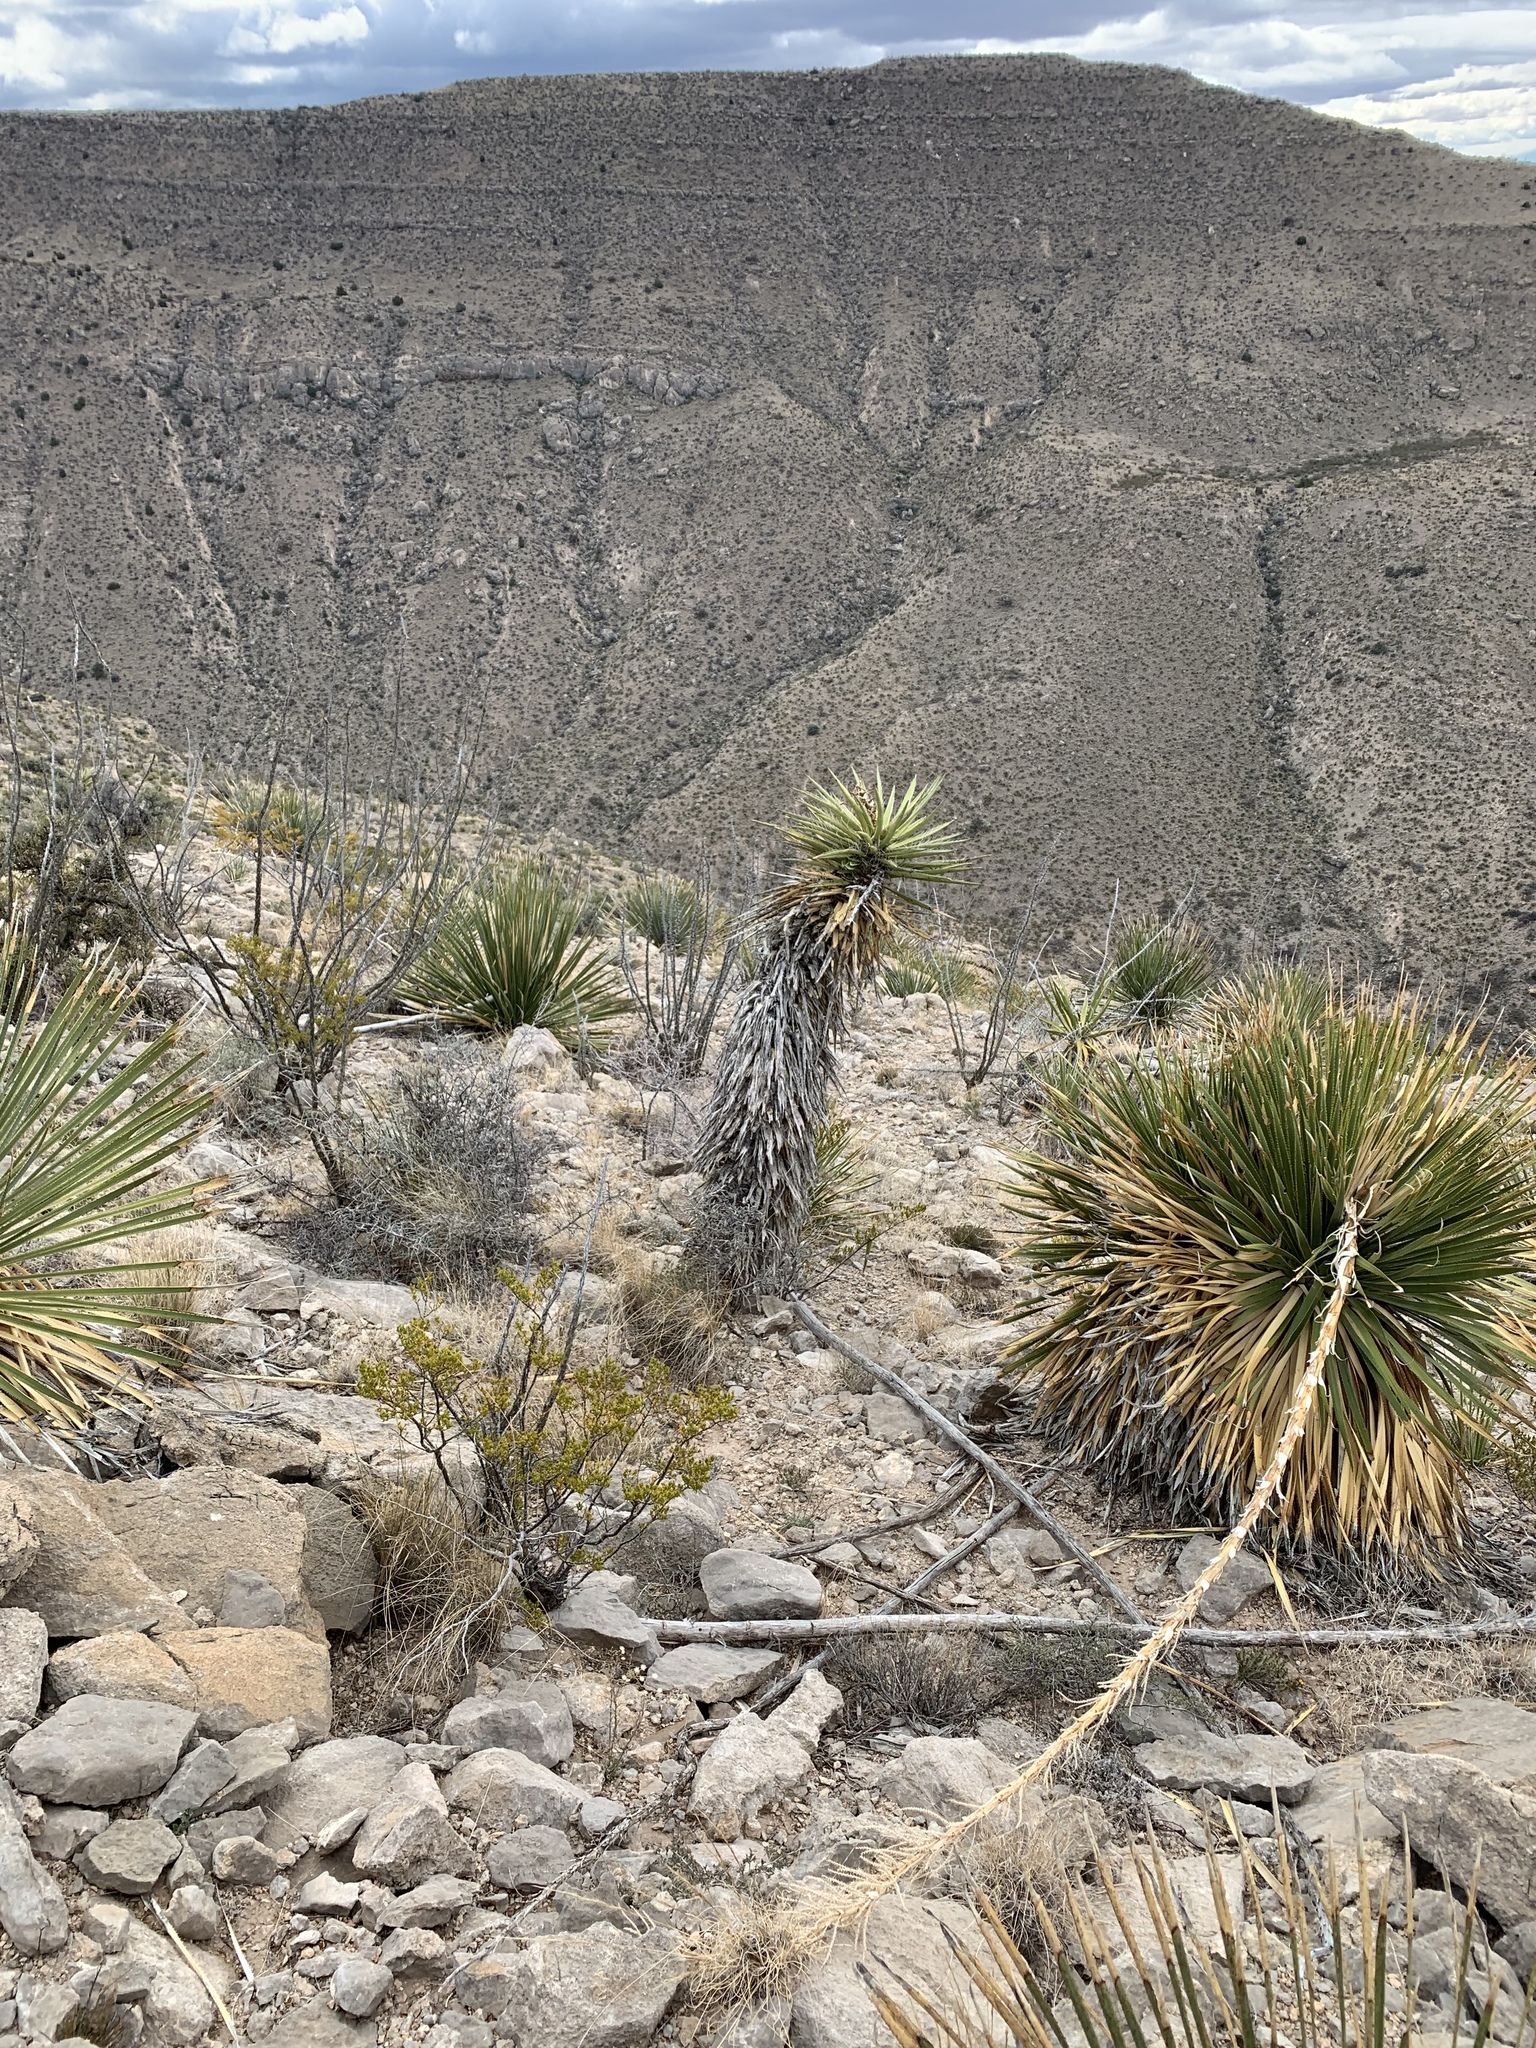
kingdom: Plantae
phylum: Tracheophyta
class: Liliopsida
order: Asparagales
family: Asparagaceae
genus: Yucca
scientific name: Yucca treculiana
